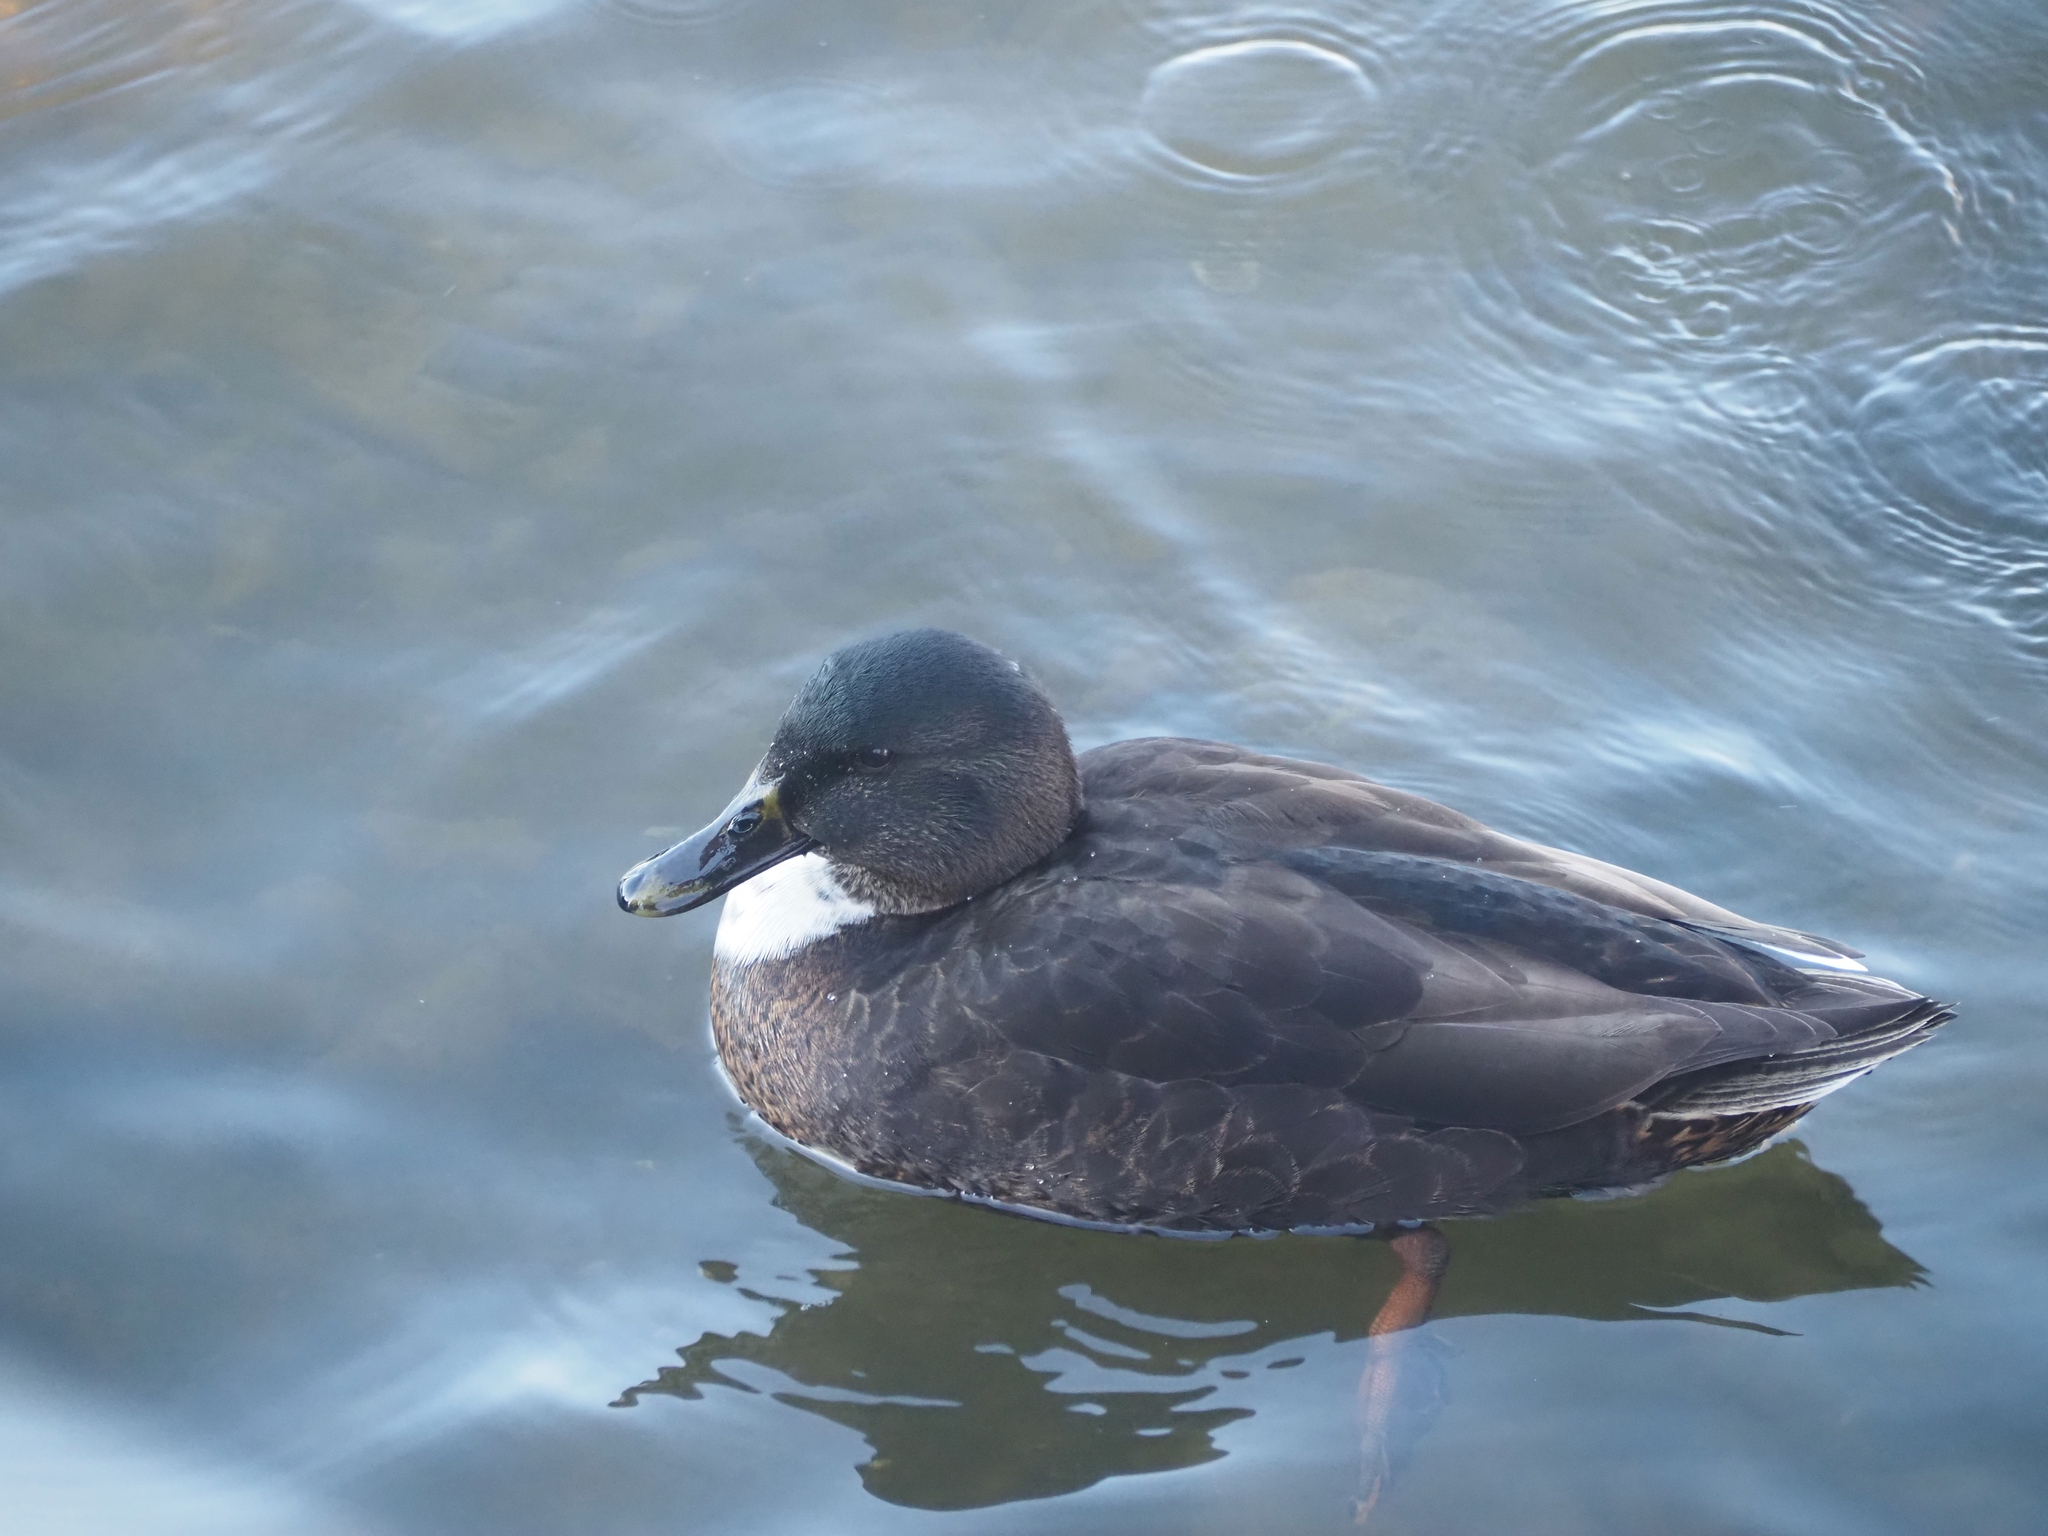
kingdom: Animalia
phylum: Chordata
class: Aves
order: Anseriformes
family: Anatidae
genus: Anas
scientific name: Anas platyrhynchos
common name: Mallard
